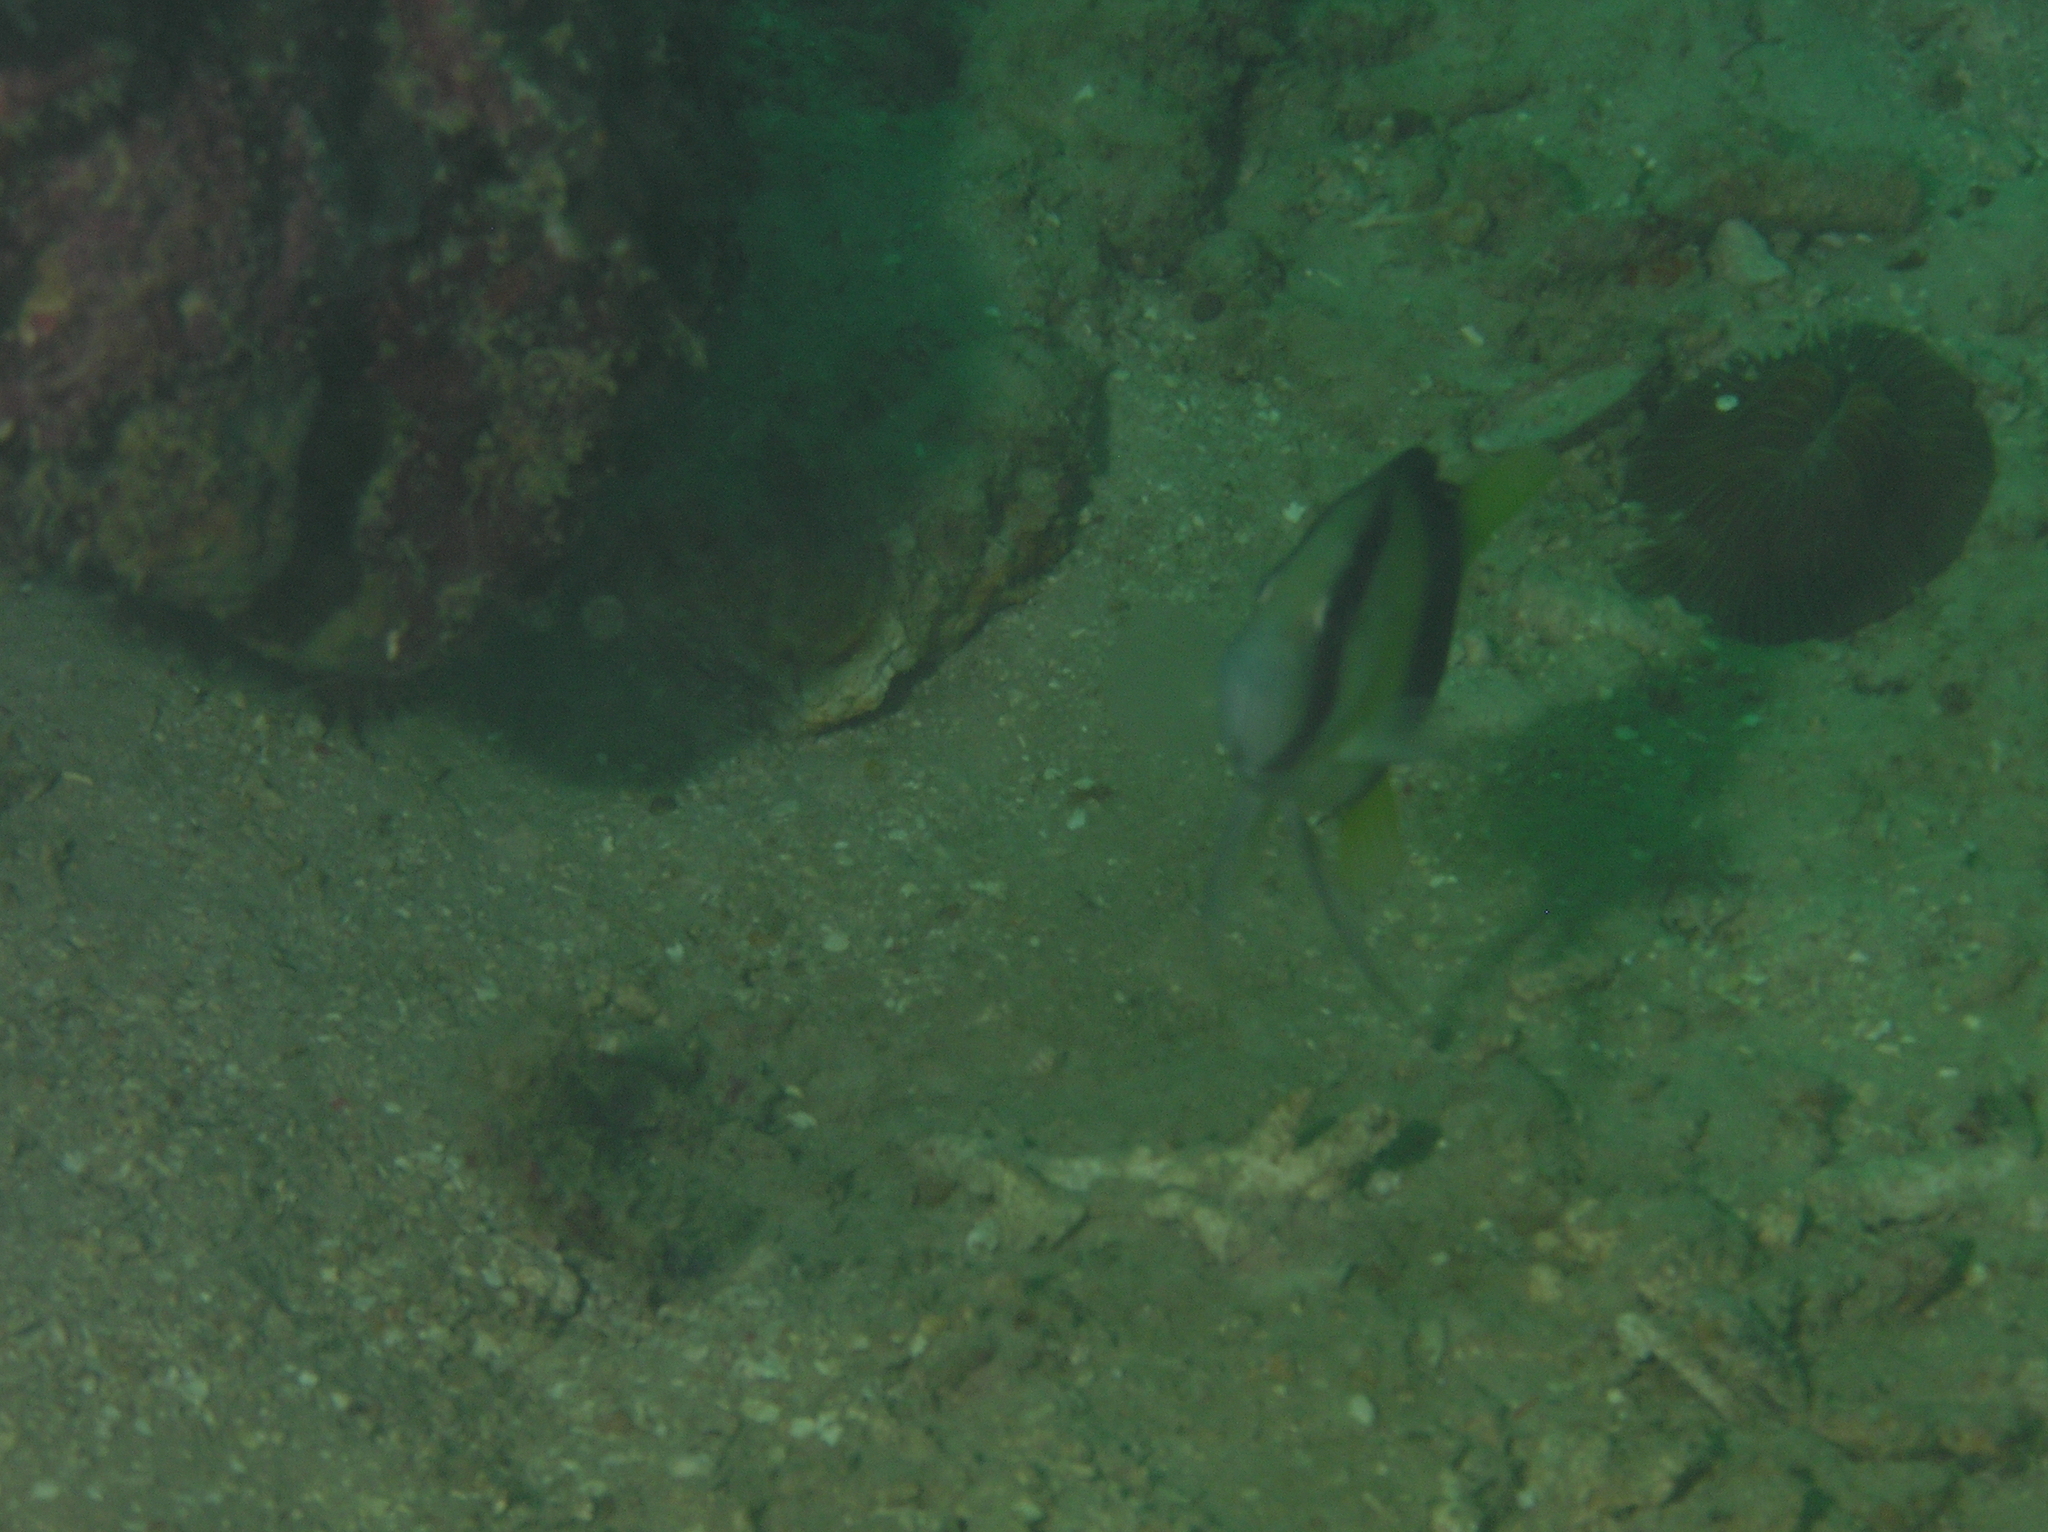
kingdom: Animalia
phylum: Chordata
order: Perciformes
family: Serranidae
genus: Diploprion
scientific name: Diploprion bifasciatum
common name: Barred soapfish
